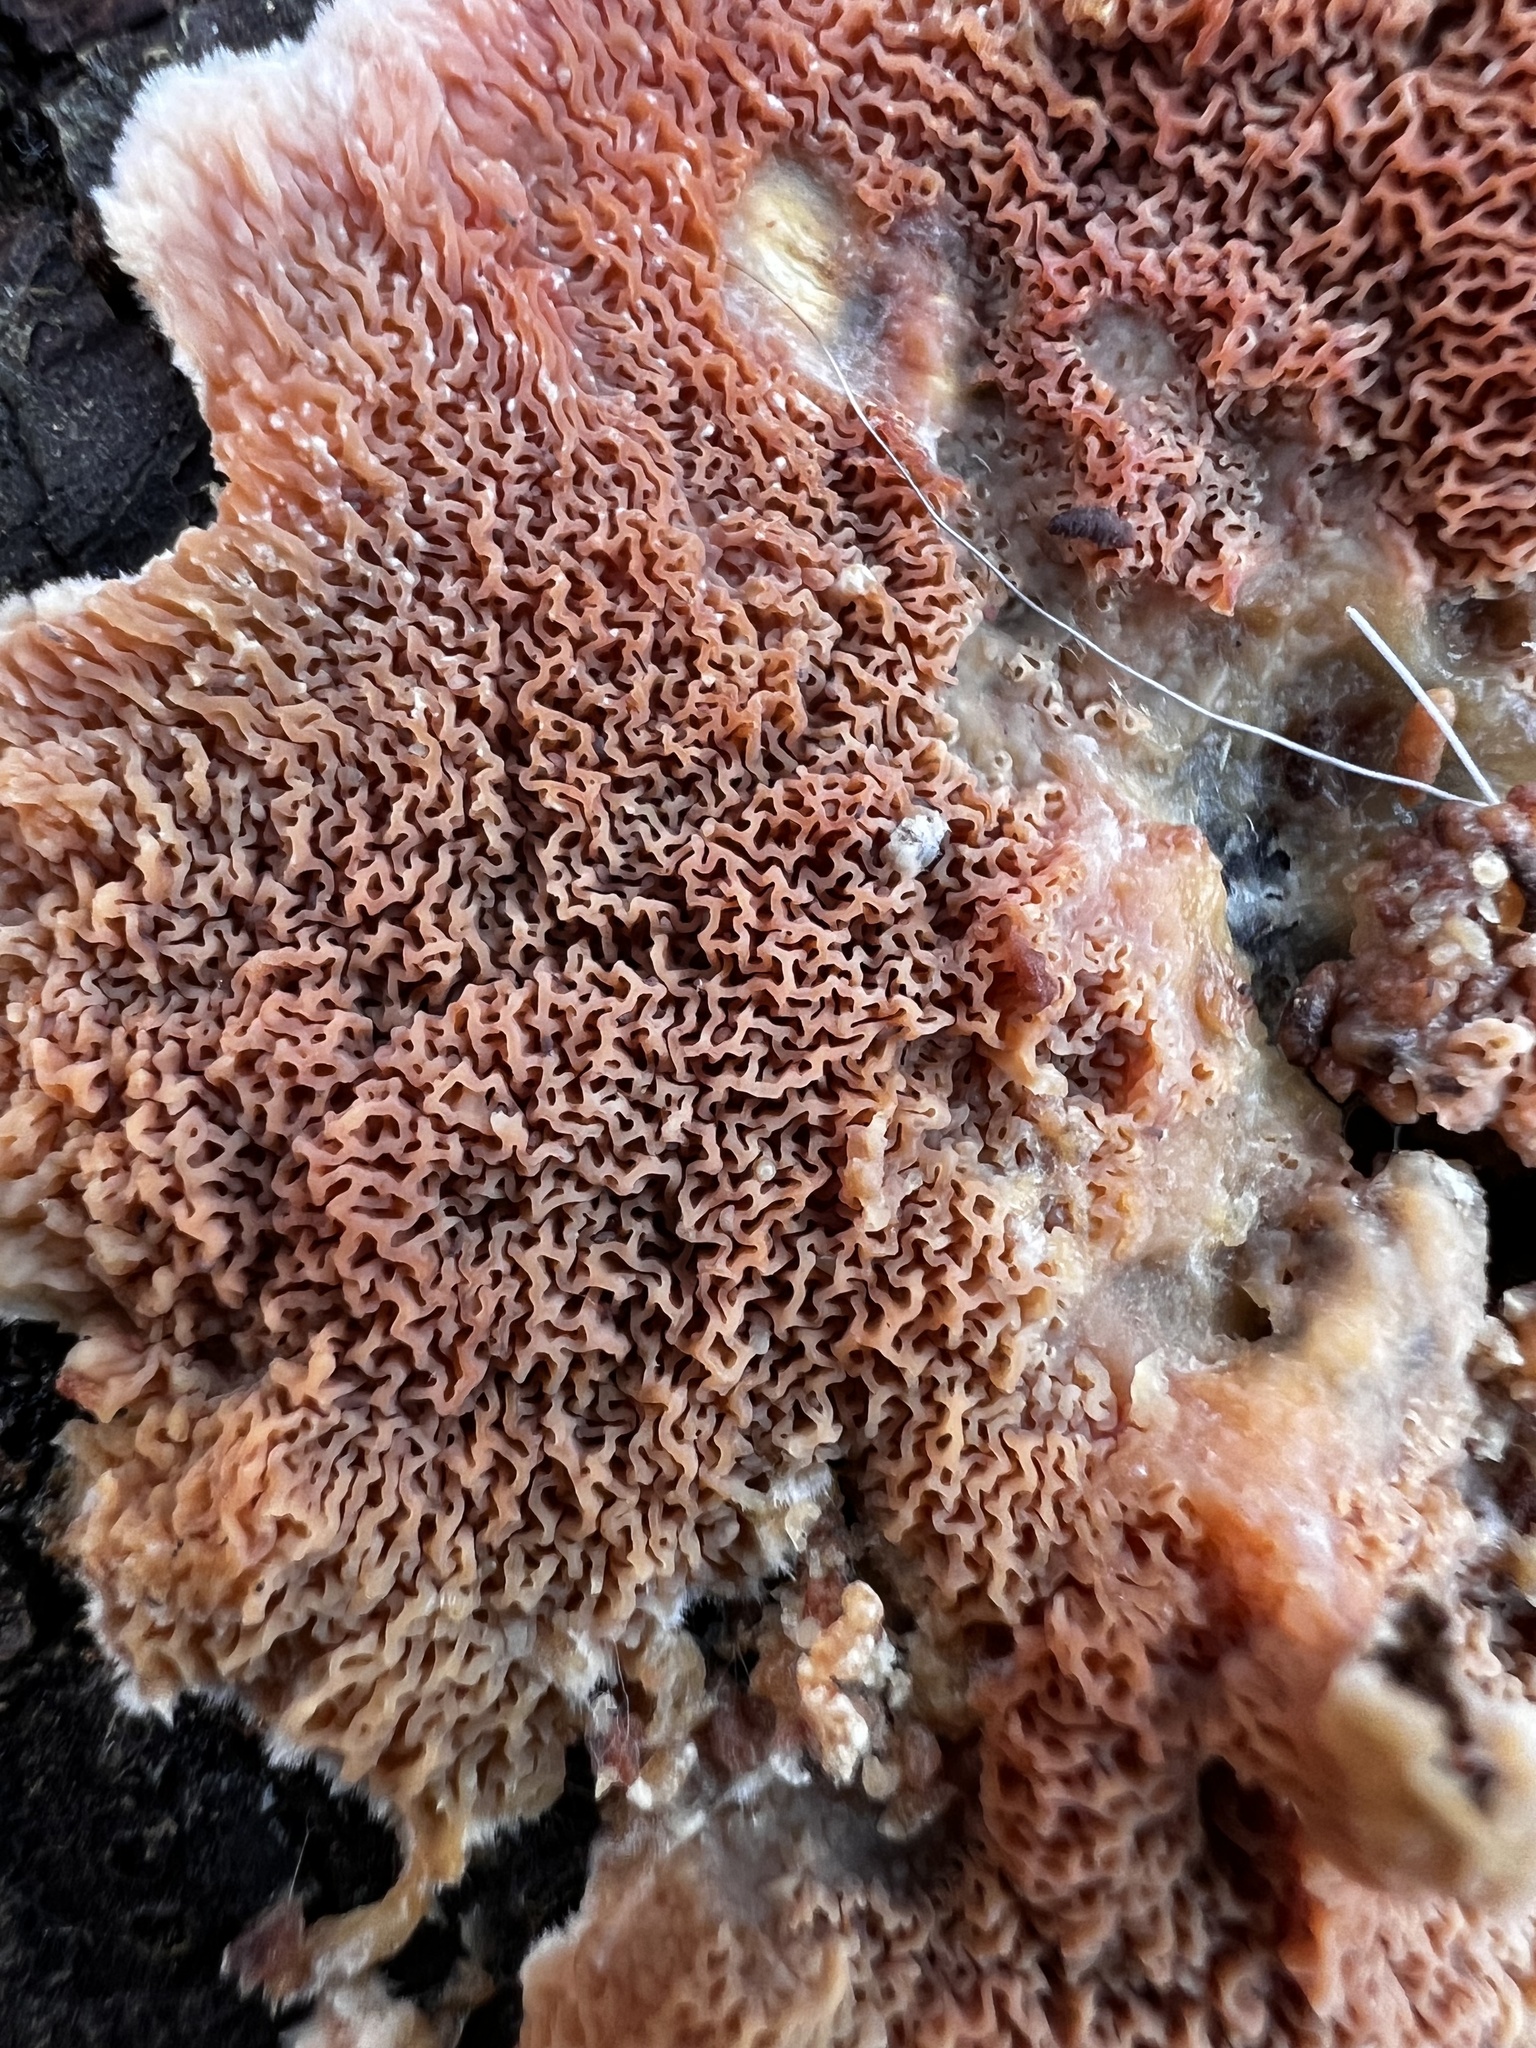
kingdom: Fungi
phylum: Basidiomycota
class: Agaricomycetes
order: Polyporales
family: Meruliaceae
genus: Phlebia
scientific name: Phlebia tremellosa
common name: Jelly rot
